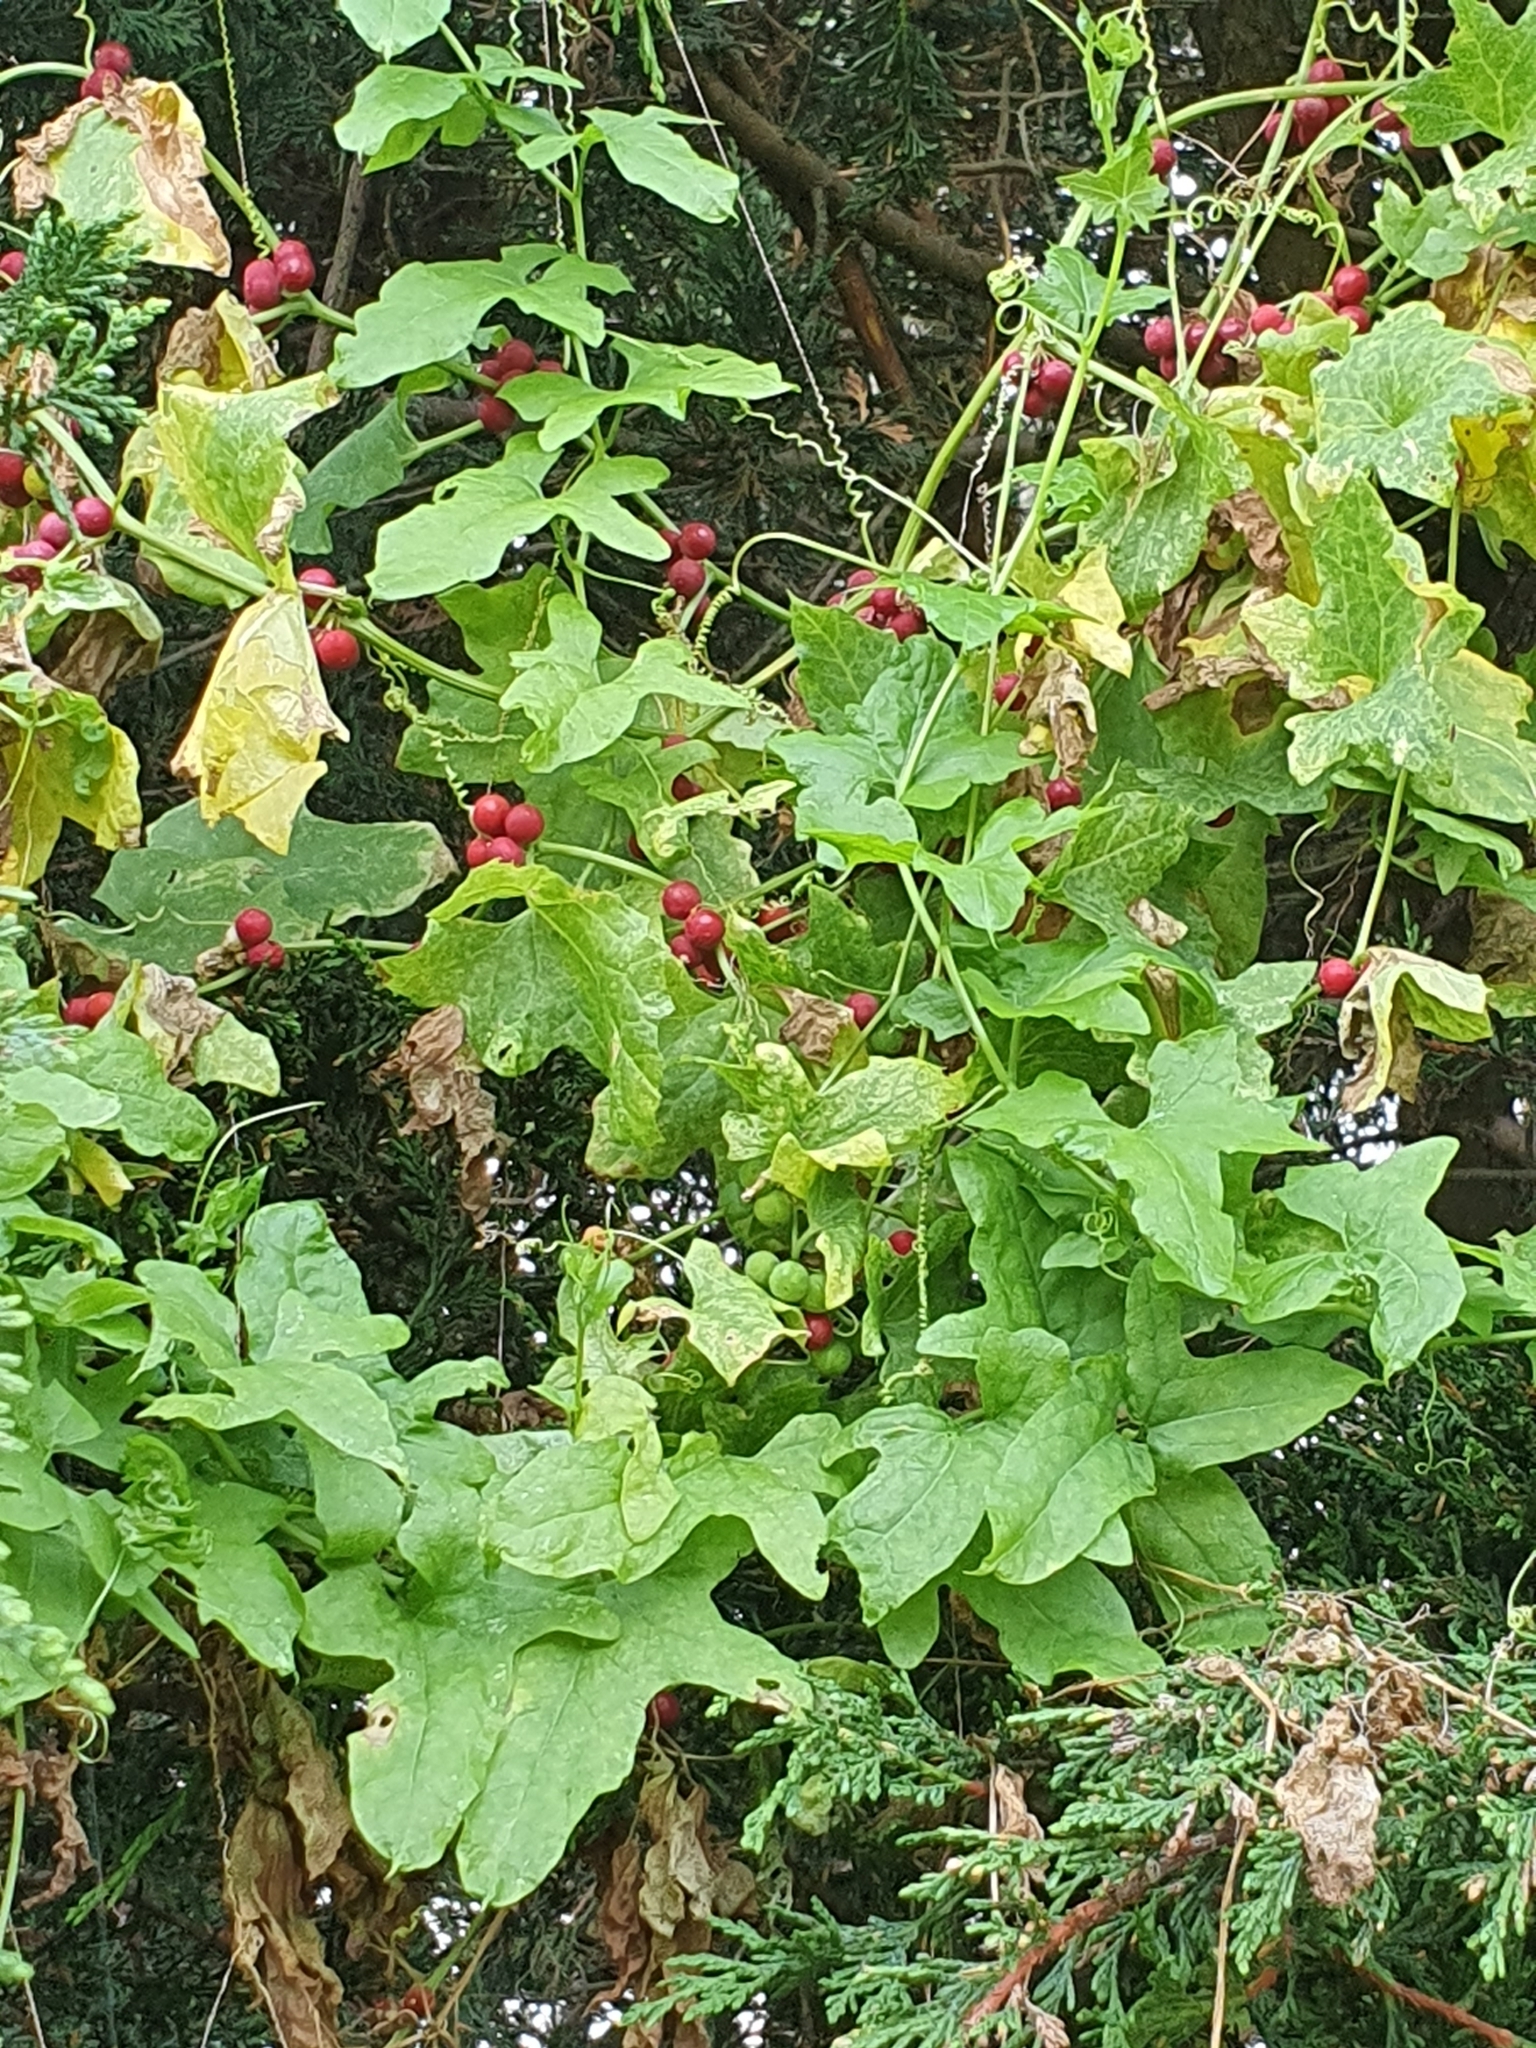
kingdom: Plantae
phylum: Tracheophyta
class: Magnoliopsida
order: Cucurbitales
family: Cucurbitaceae
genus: Bryonia
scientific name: Bryonia cretica
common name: Cretan bryony
